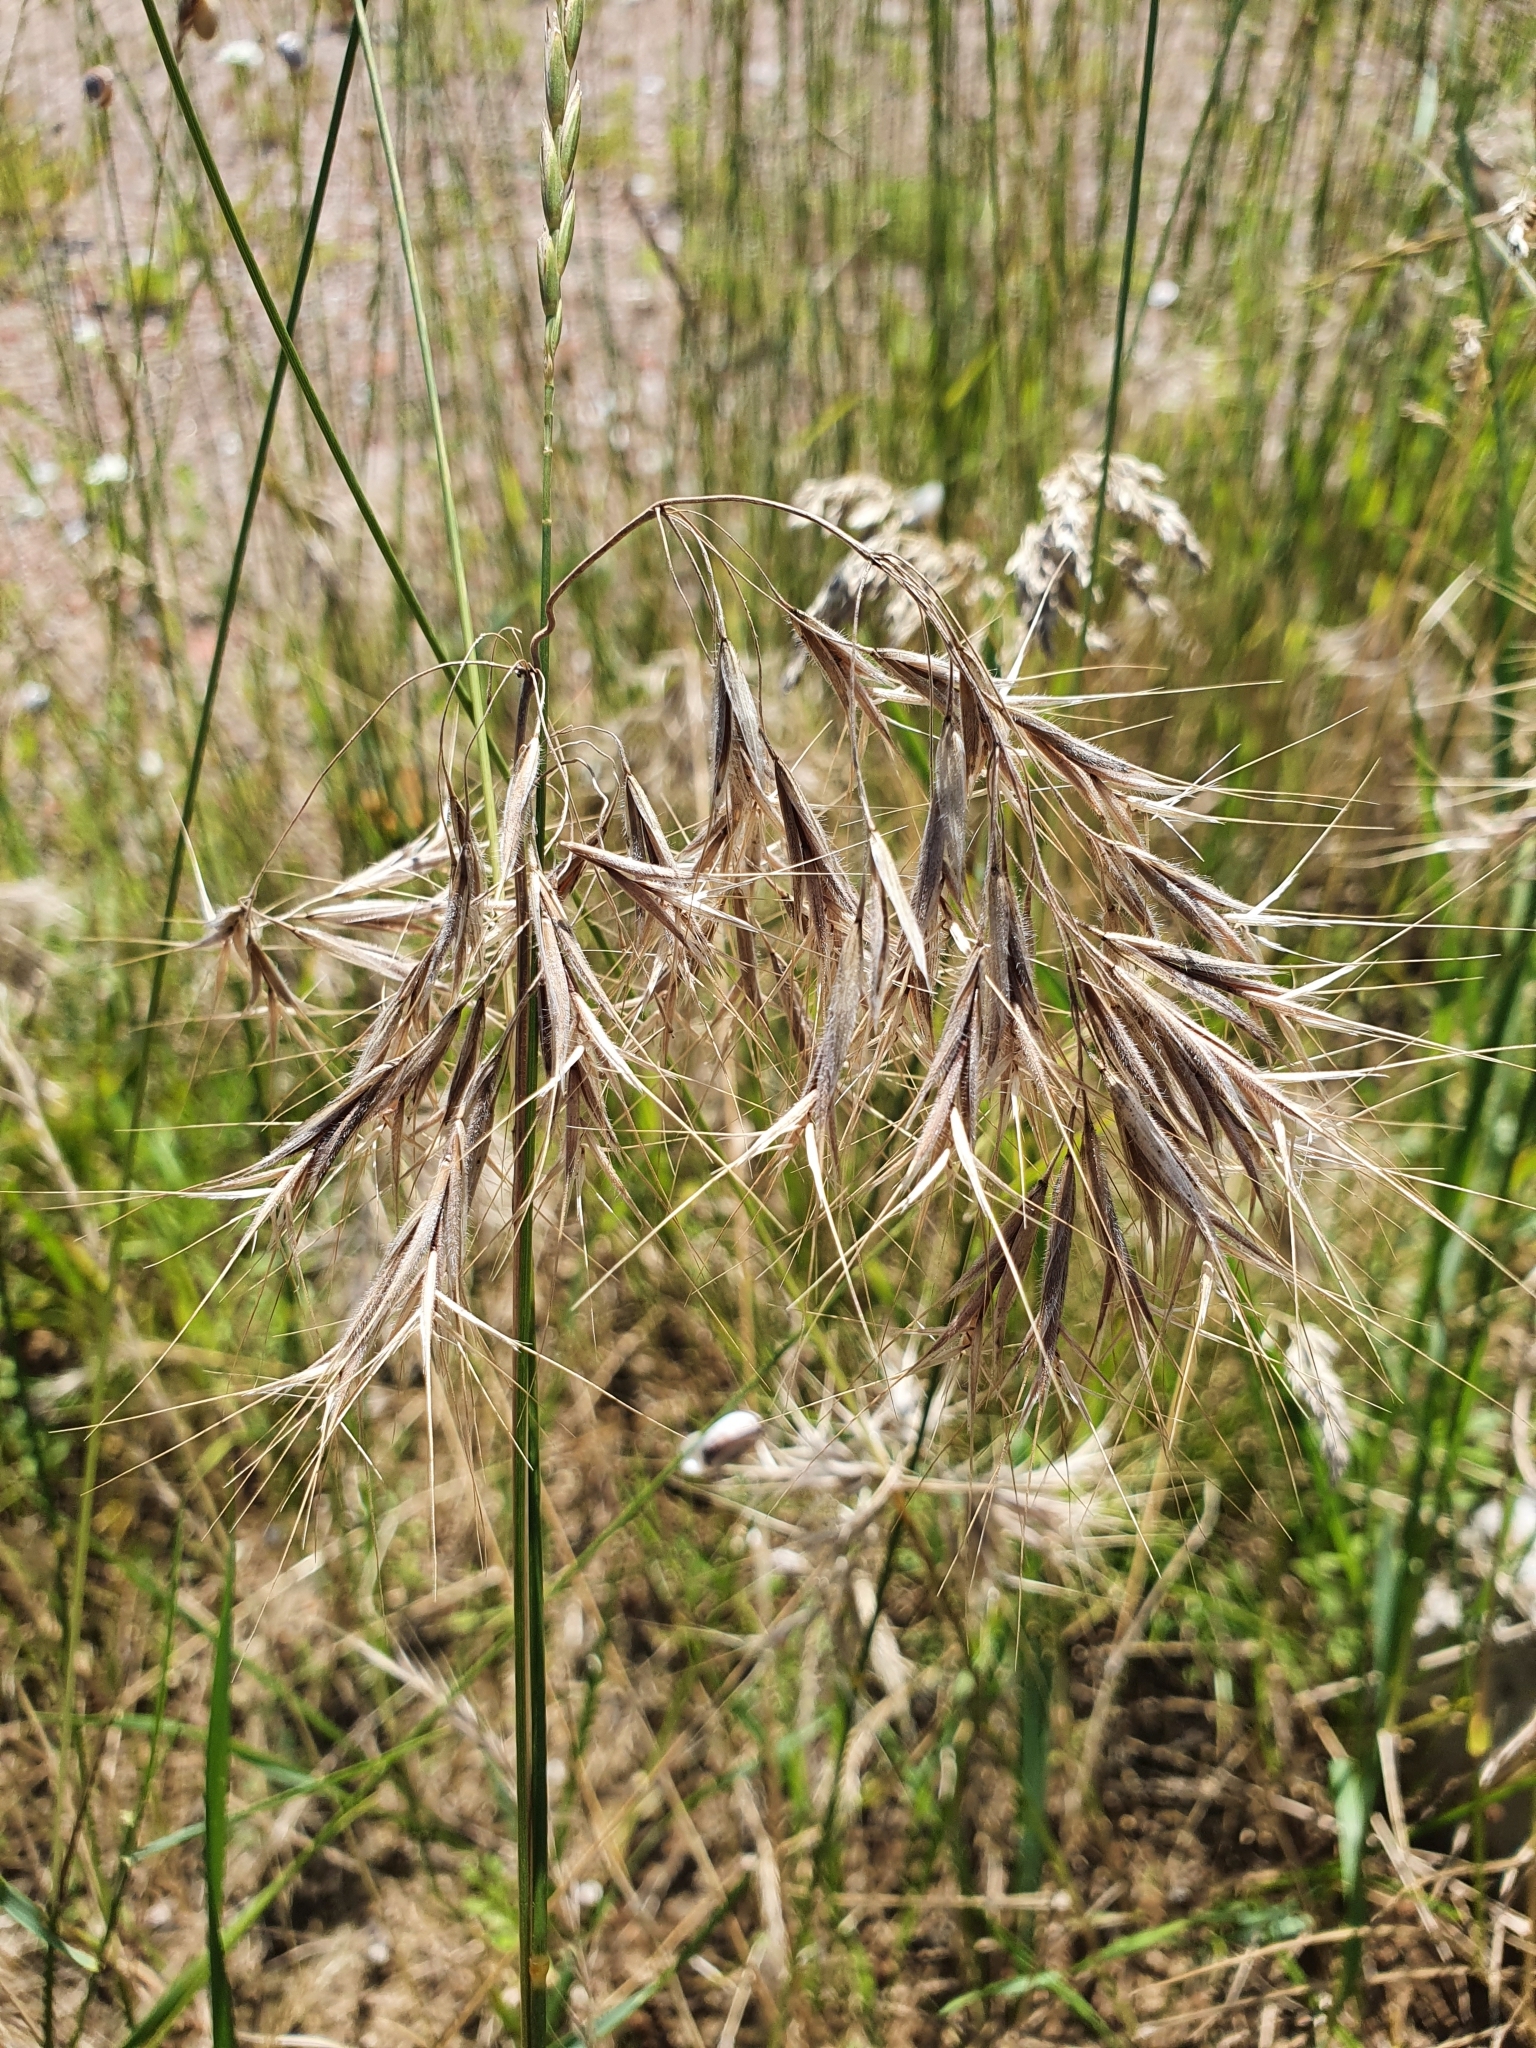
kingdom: Plantae
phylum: Tracheophyta
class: Liliopsida
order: Poales
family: Poaceae
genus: Bromus
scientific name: Bromus tectorum
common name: Cheatgrass
